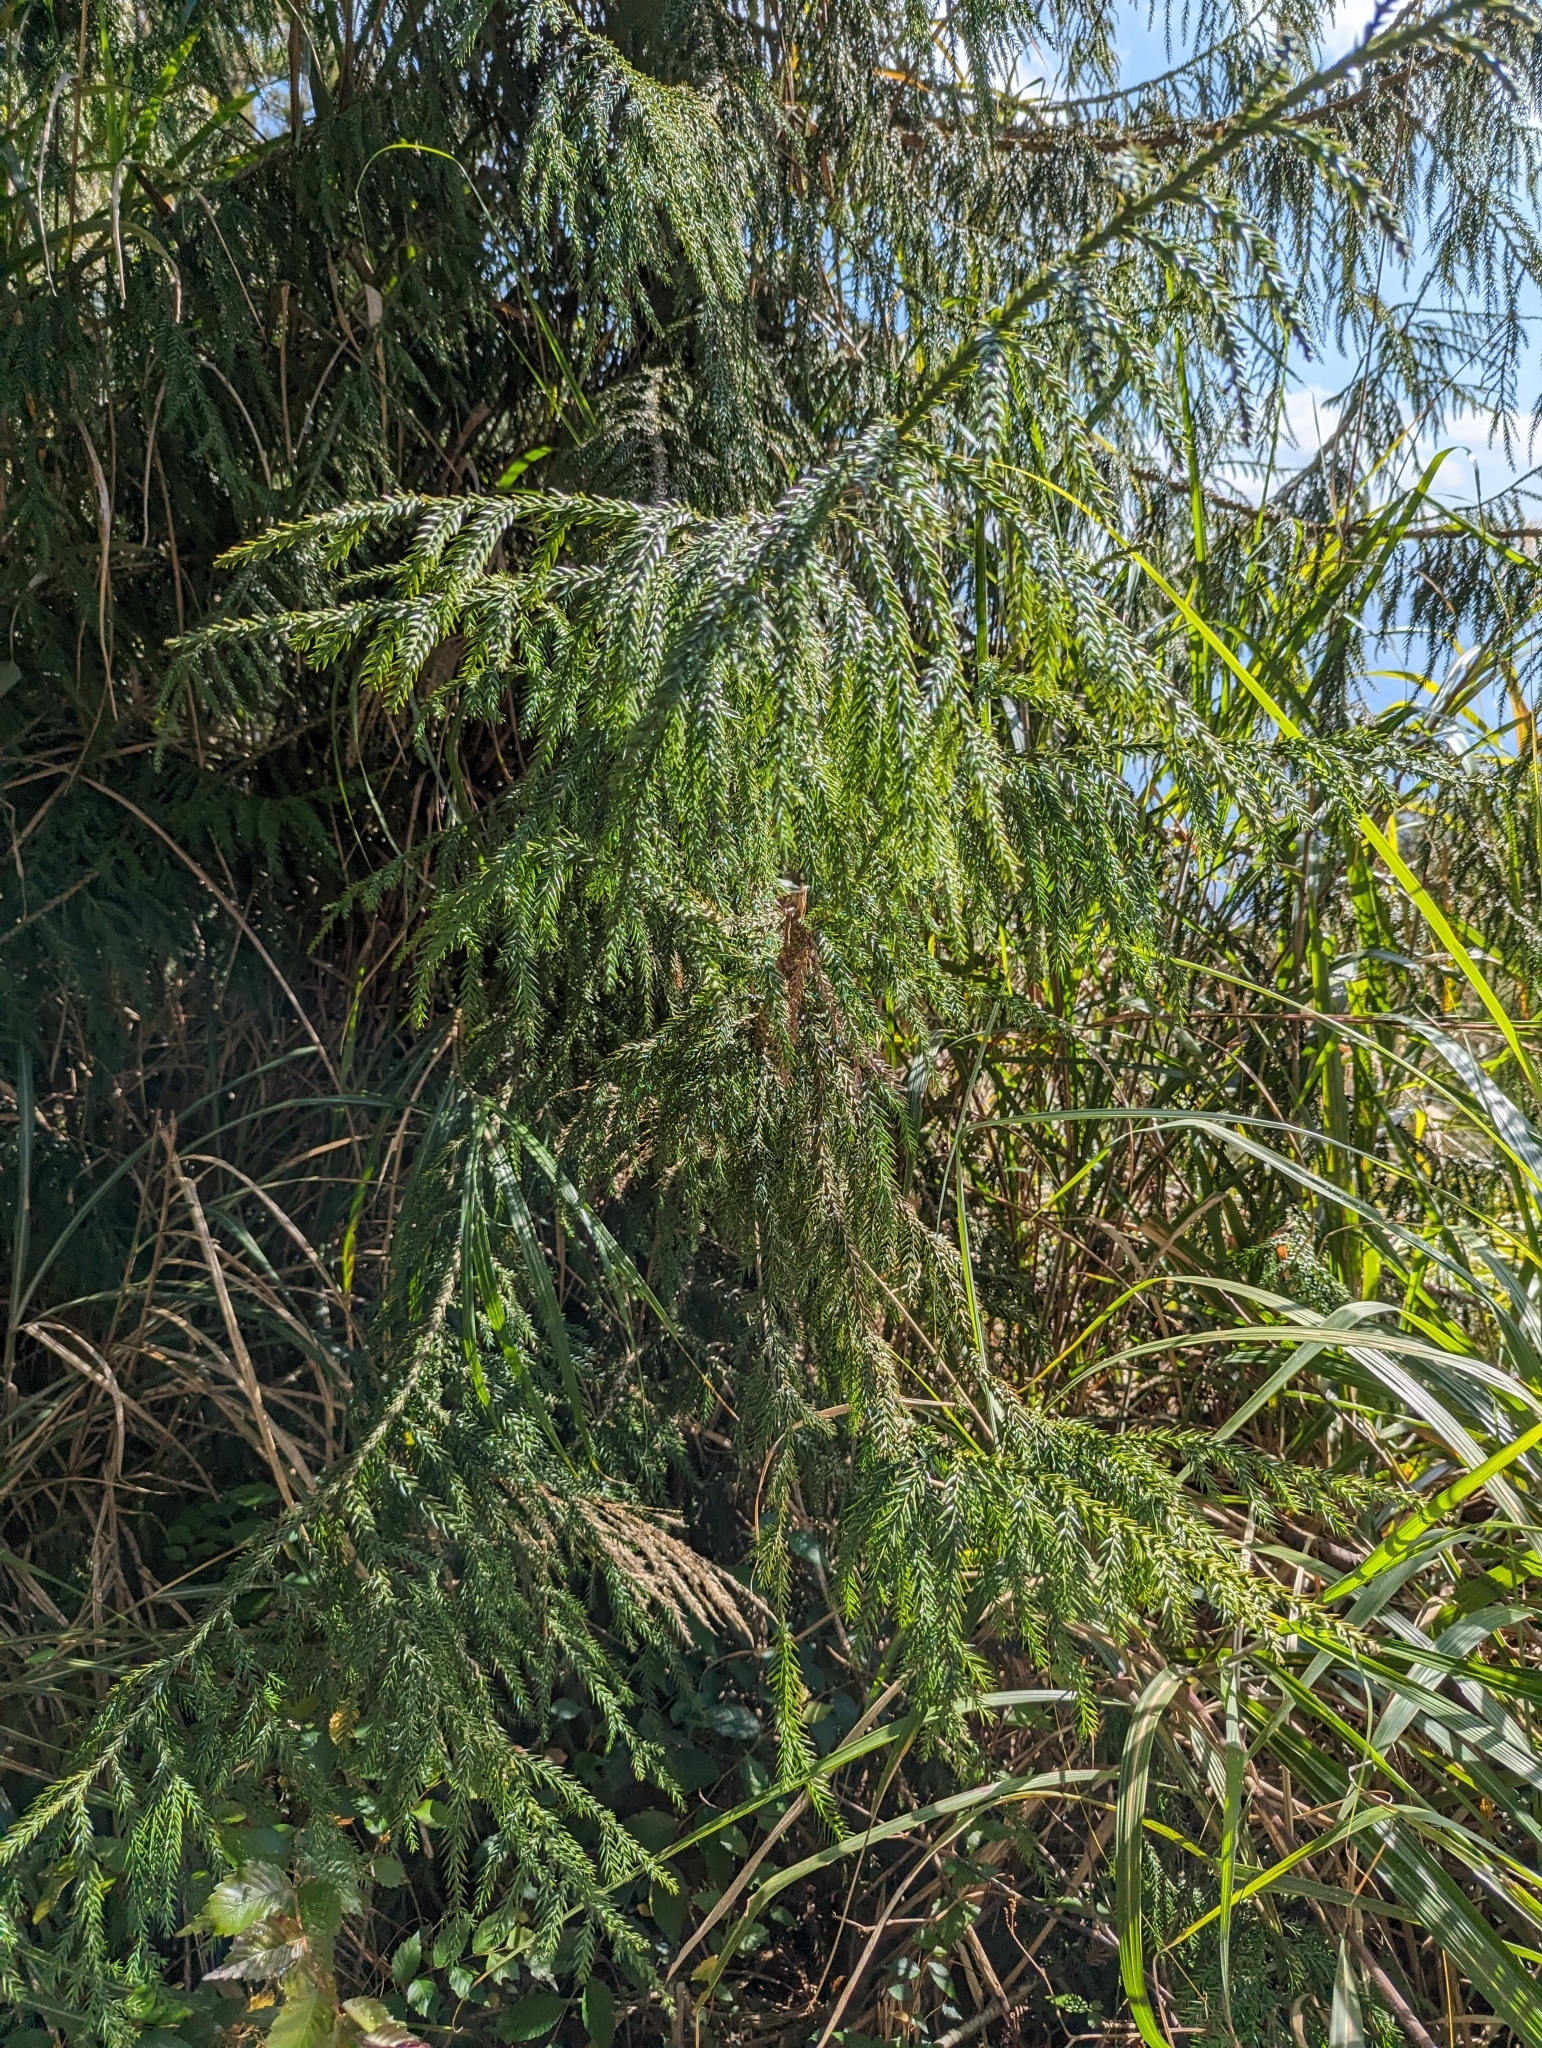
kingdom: Plantae
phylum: Tracheophyta
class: Pinopsida
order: Pinales
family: Cupressaceae
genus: Taiwania
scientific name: Taiwania cryptomerioides
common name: Coffin tree
